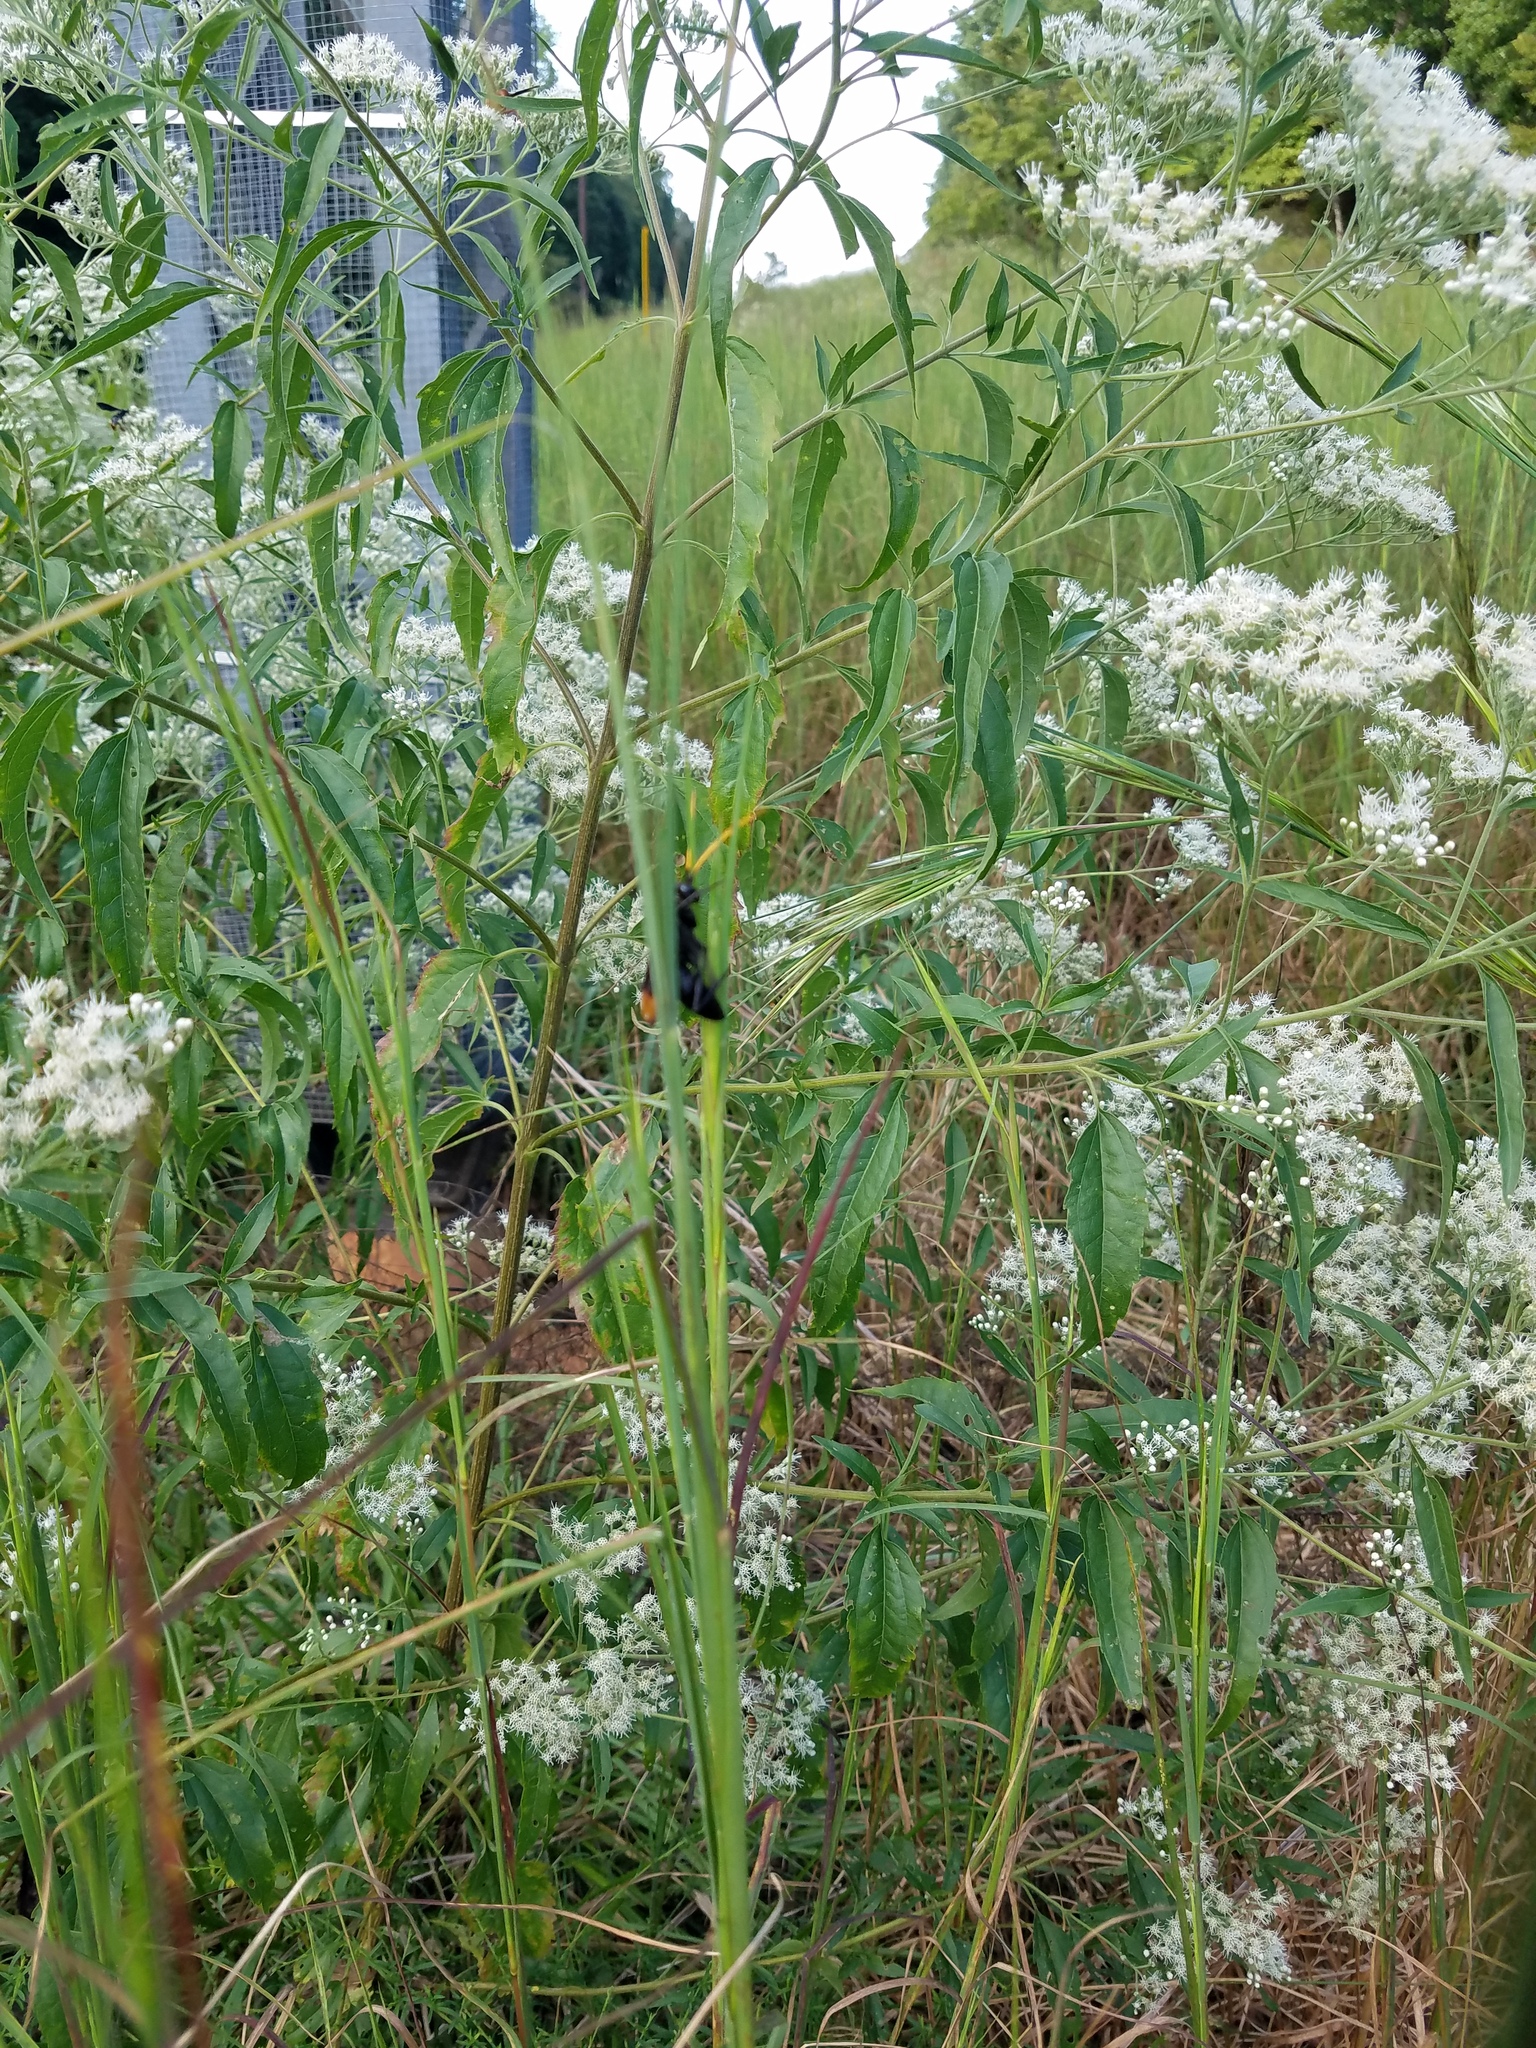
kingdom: Plantae
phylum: Tracheophyta
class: Magnoliopsida
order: Asterales
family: Asteraceae
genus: Eupatorium
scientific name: Eupatorium serotinum
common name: Late boneset
